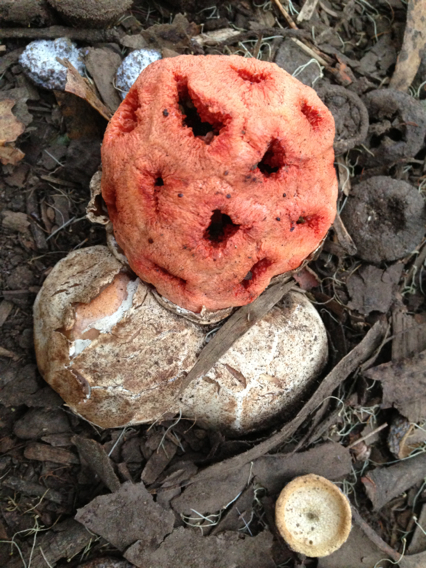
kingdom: Fungi
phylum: Basidiomycota
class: Agaricomycetes
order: Phallales
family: Phallaceae
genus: Clathrus
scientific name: Clathrus ruber
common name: Red cage
